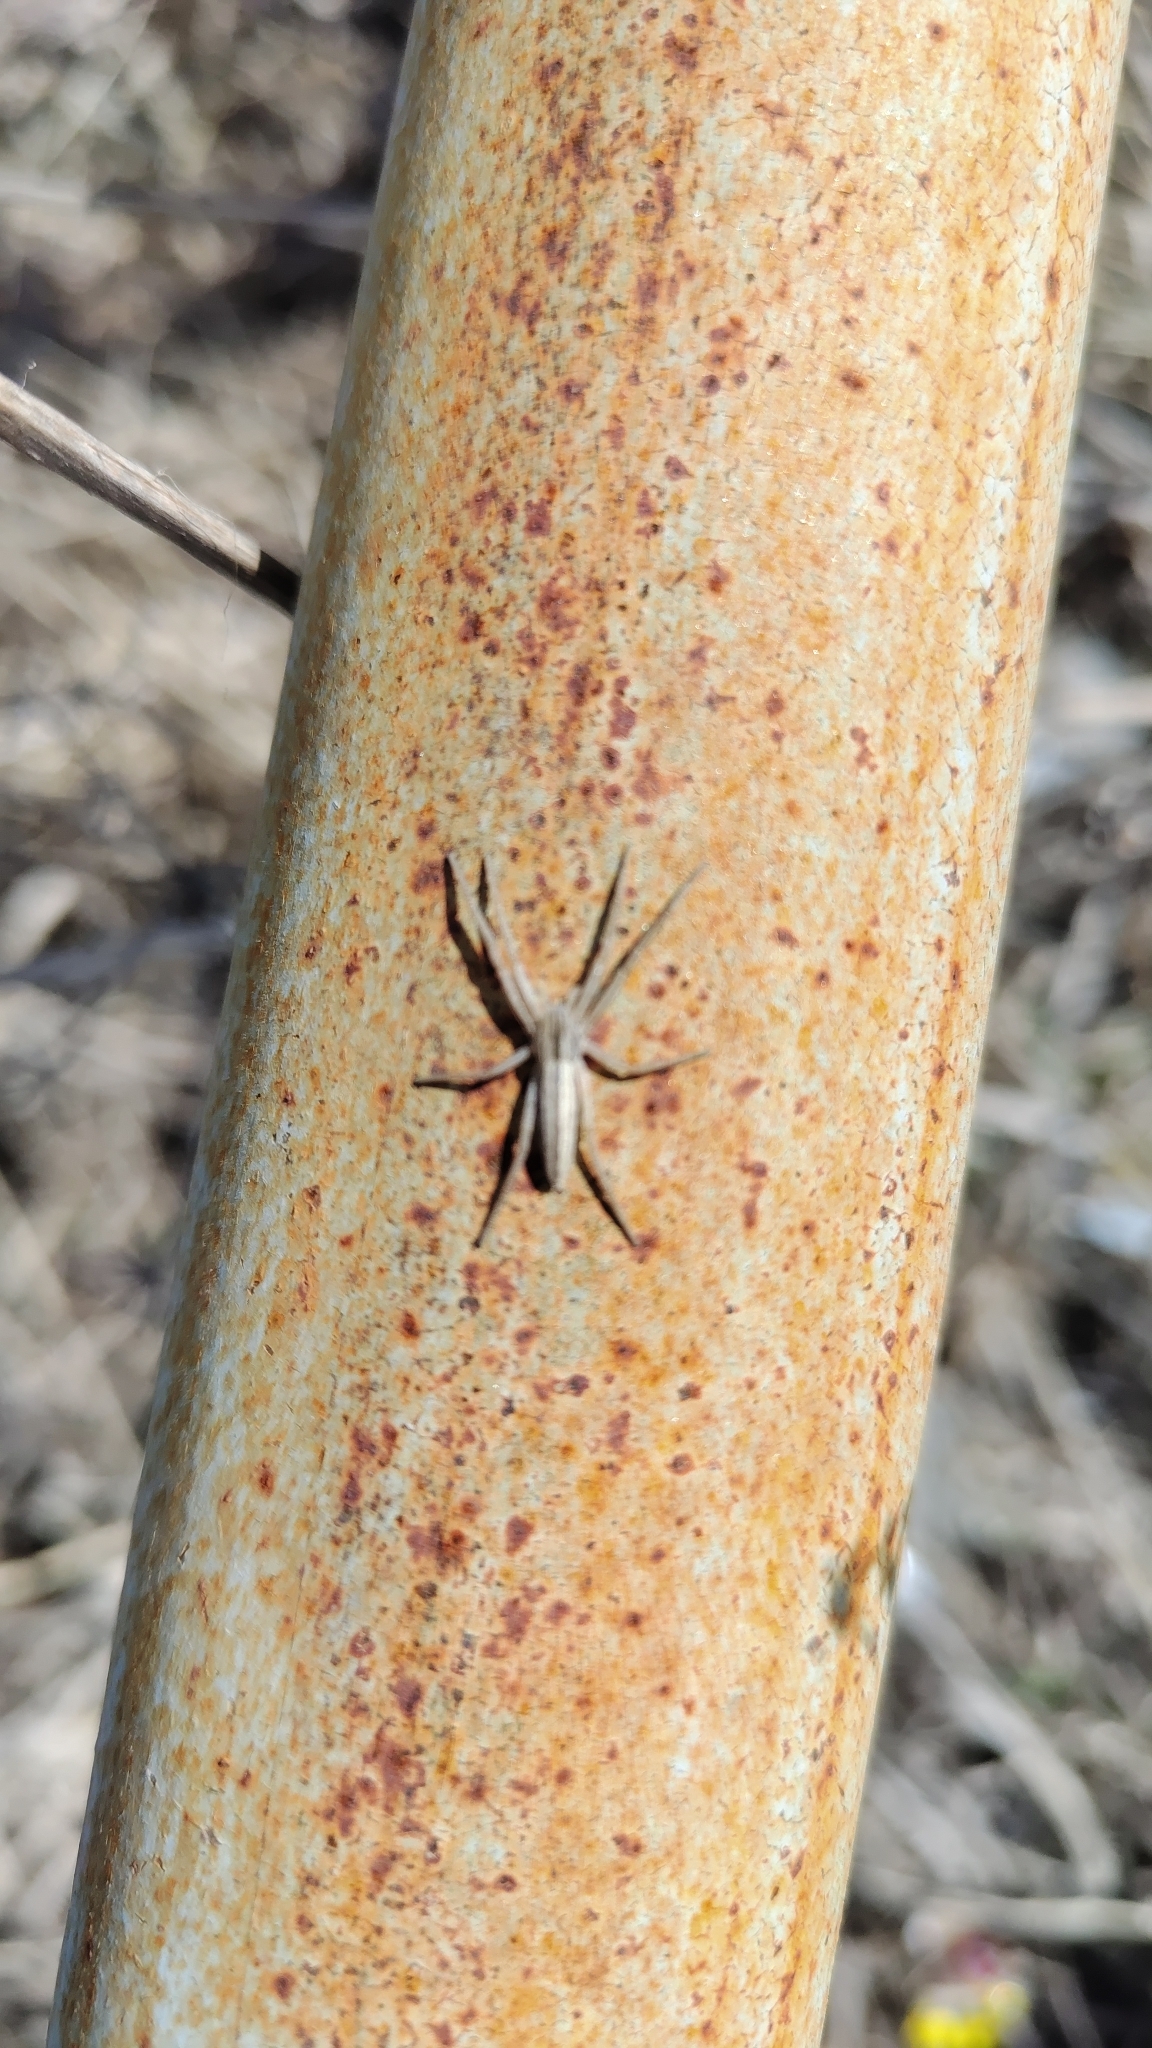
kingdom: Animalia
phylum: Arthropoda
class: Arachnida
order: Araneae
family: Philodromidae
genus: Tibellus
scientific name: Tibellus
